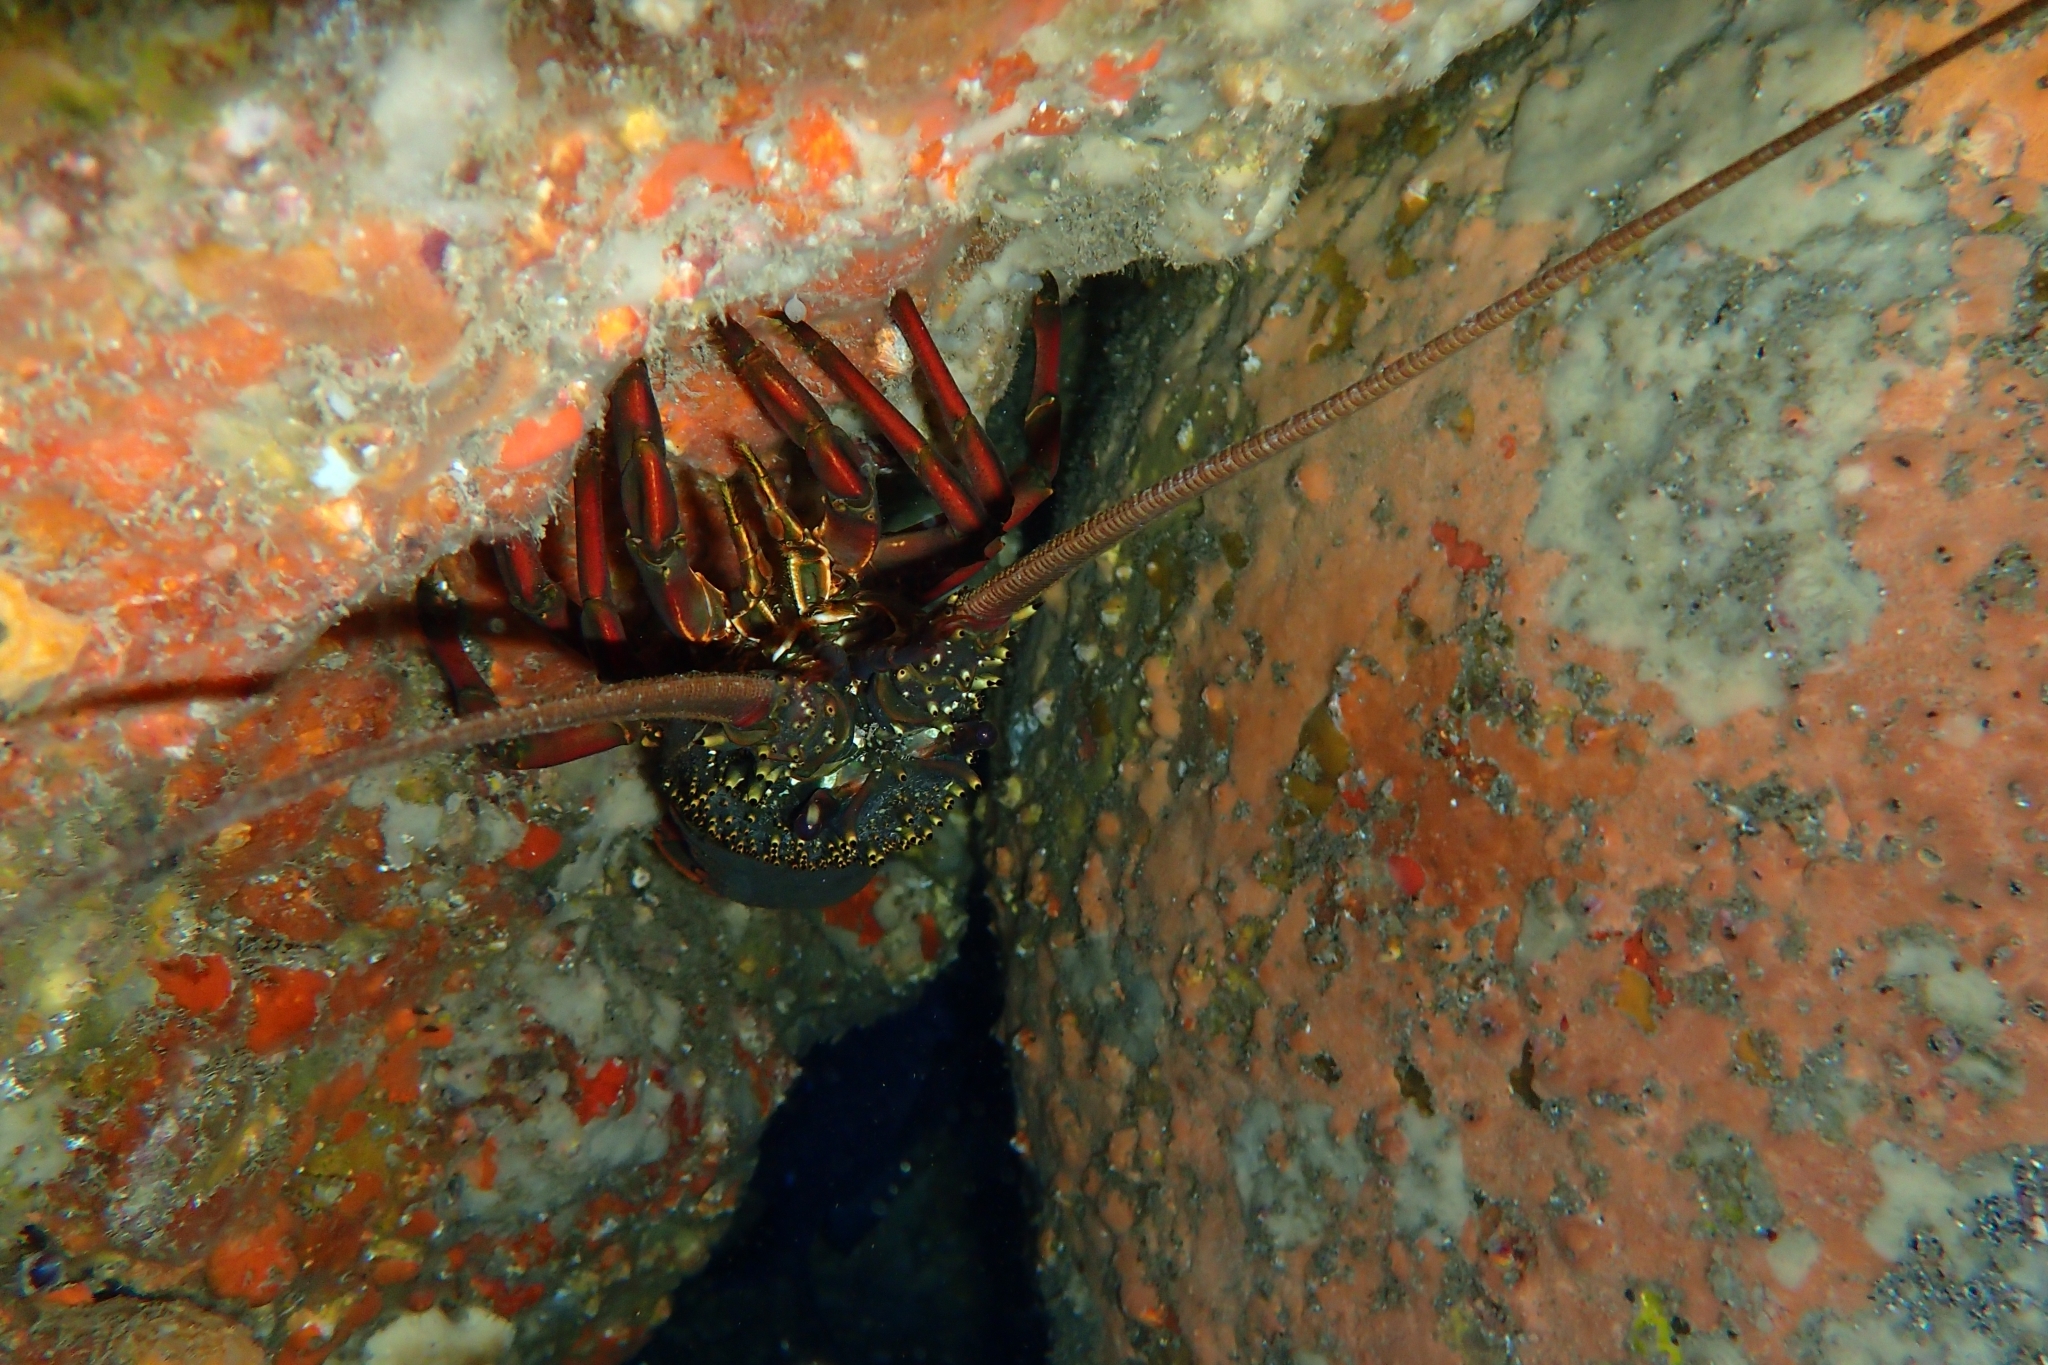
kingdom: Animalia
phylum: Arthropoda
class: Malacostraca
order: Decapoda
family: Palinuridae
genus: Sagmariasus
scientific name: Sagmariasus verreauxi
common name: Green rock lobster
